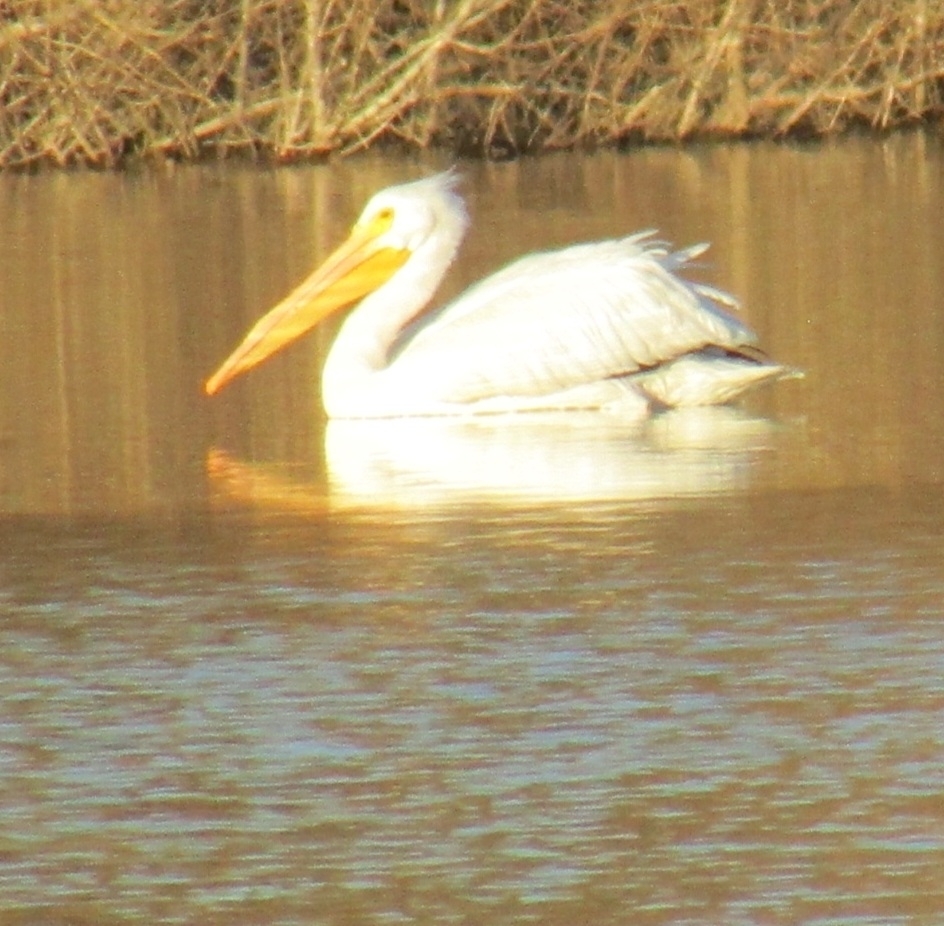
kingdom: Animalia
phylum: Chordata
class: Aves
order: Pelecaniformes
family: Pelecanidae
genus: Pelecanus
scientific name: Pelecanus erythrorhynchos
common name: American white pelican
